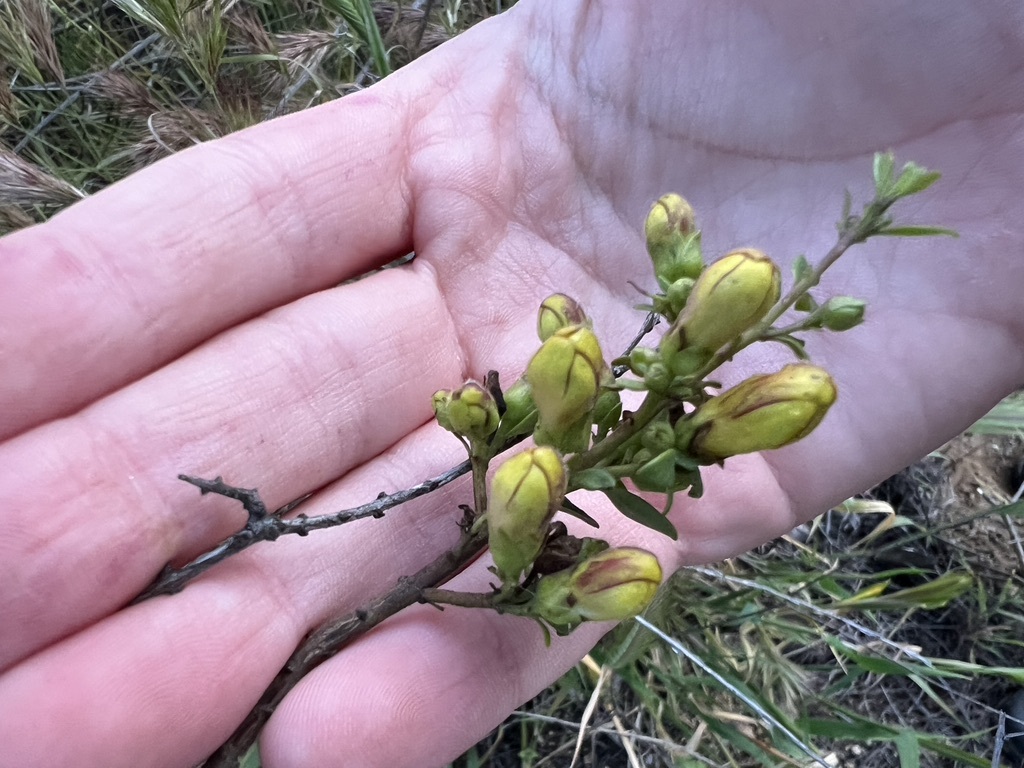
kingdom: Plantae
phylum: Tracheophyta
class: Magnoliopsida
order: Lamiales
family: Plantaginaceae
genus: Keckiella
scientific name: Keckiella antirrhinoides
